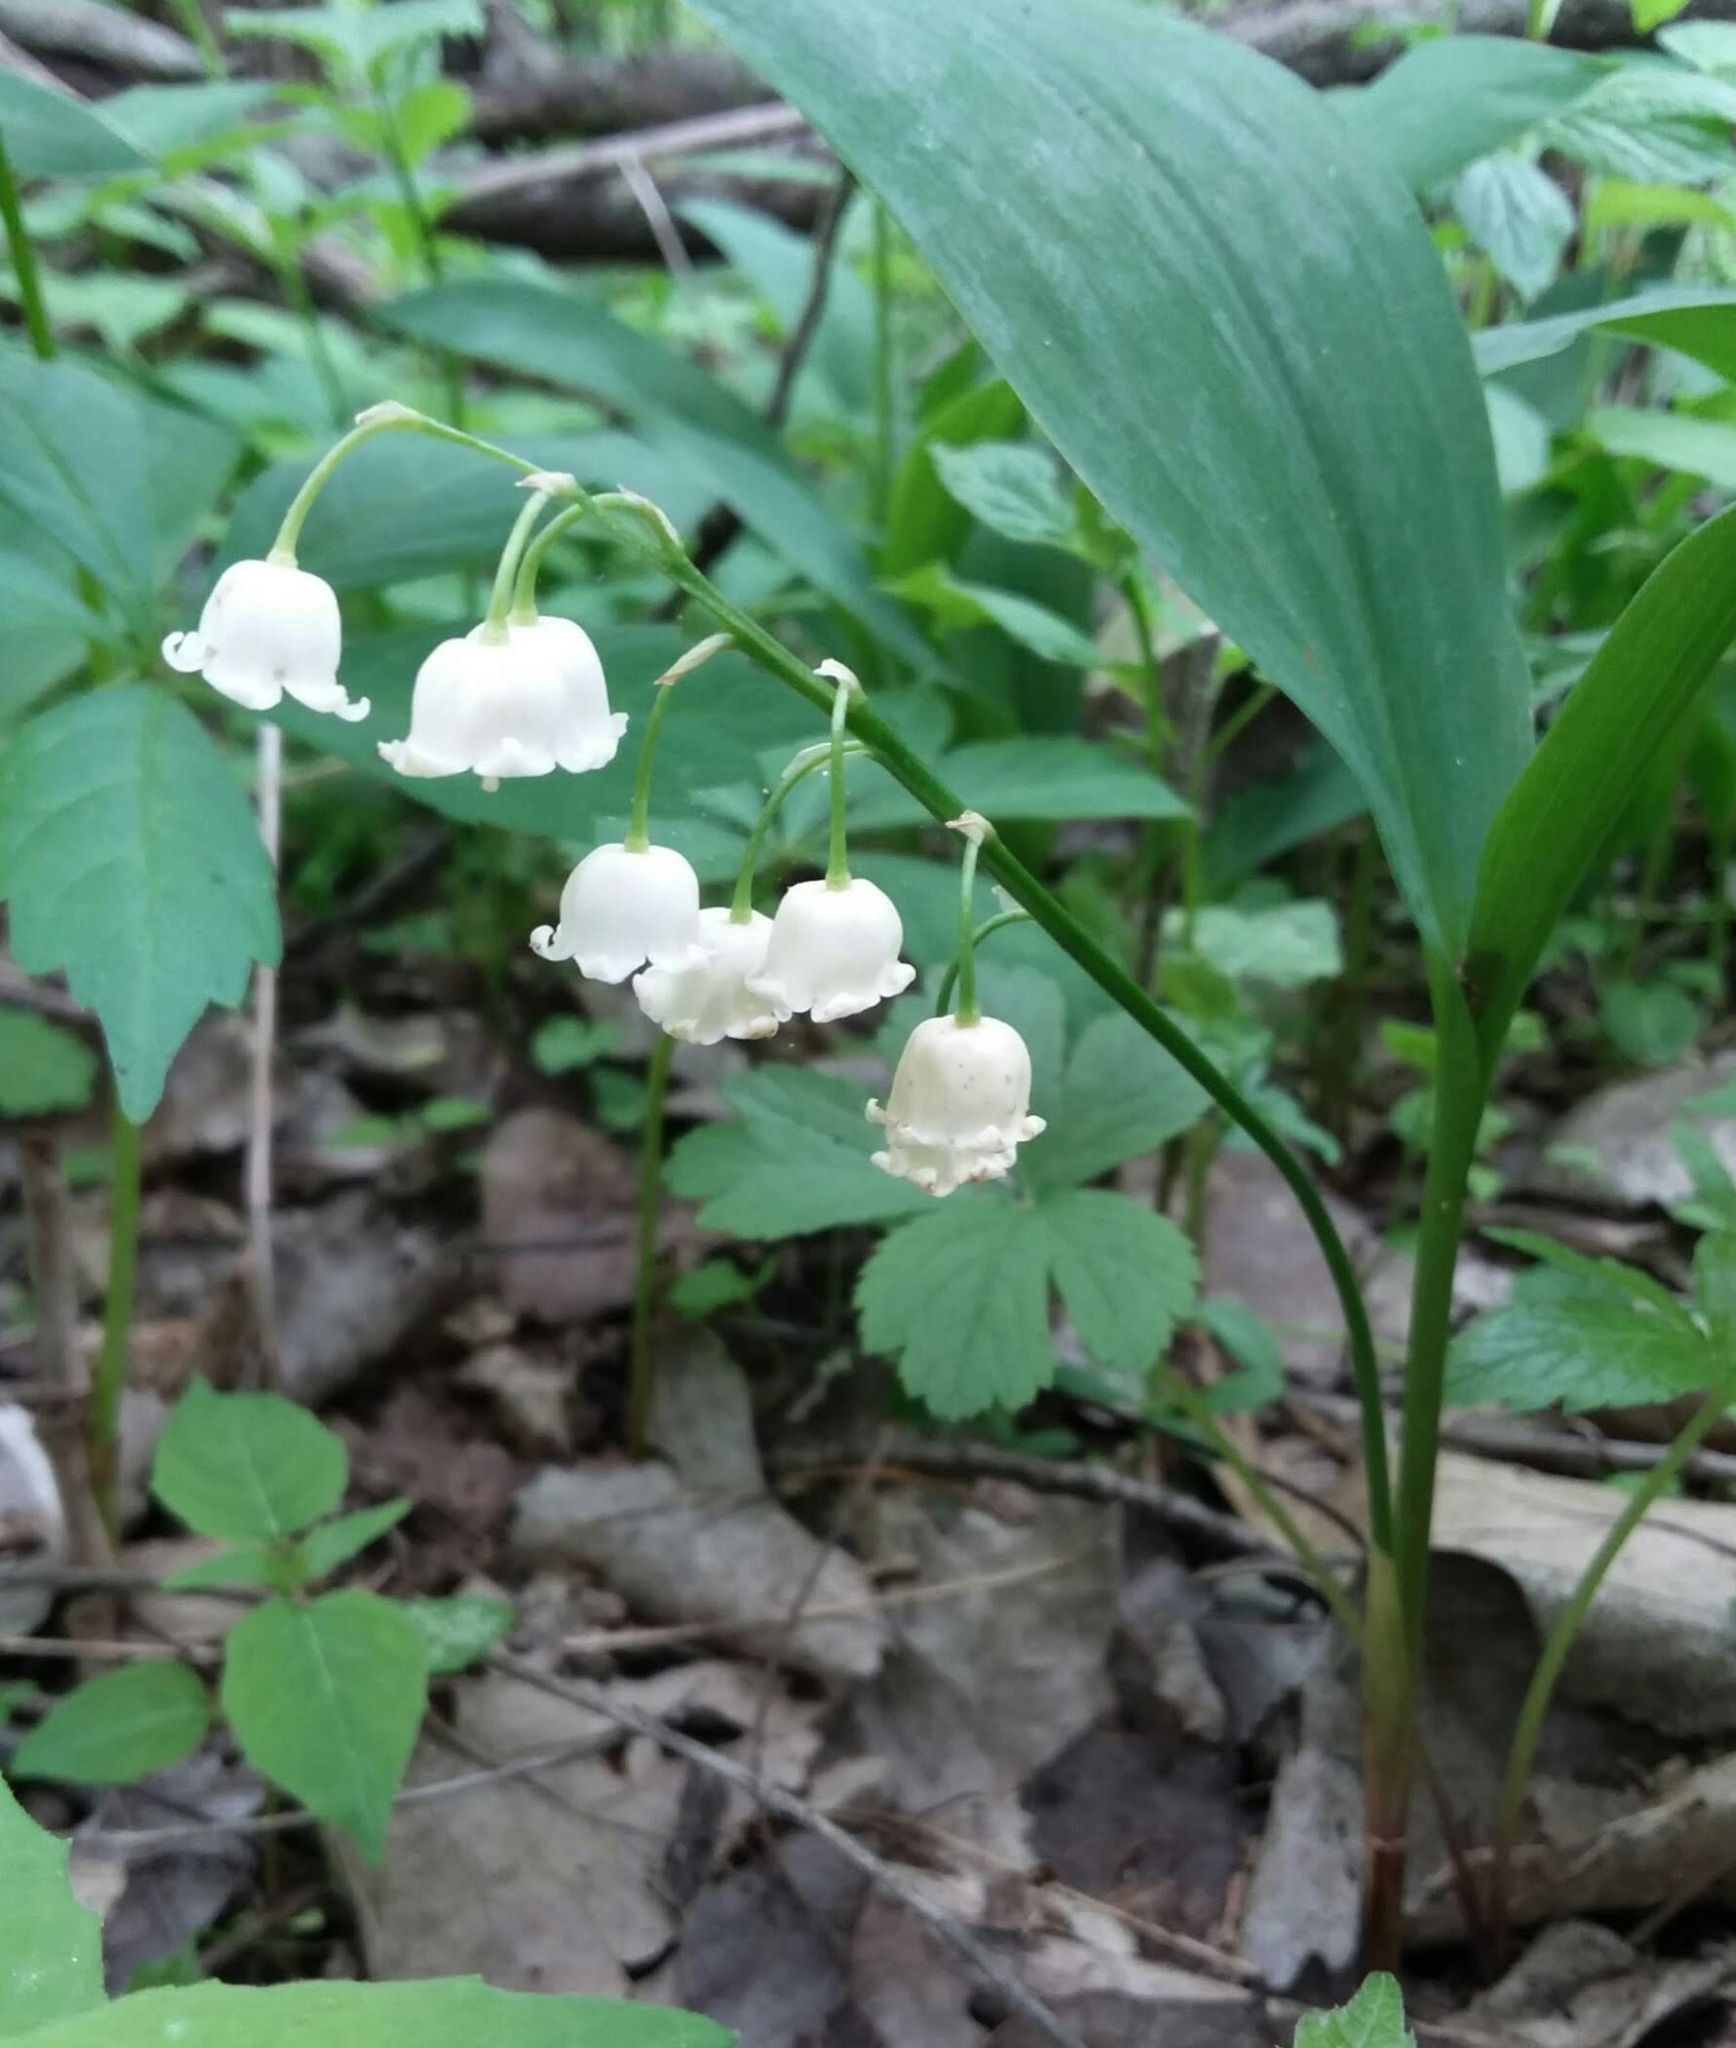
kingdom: Plantae
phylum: Tracheophyta
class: Liliopsida
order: Asparagales
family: Asparagaceae
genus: Convallaria
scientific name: Convallaria majalis
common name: Lily-of-the-valley
